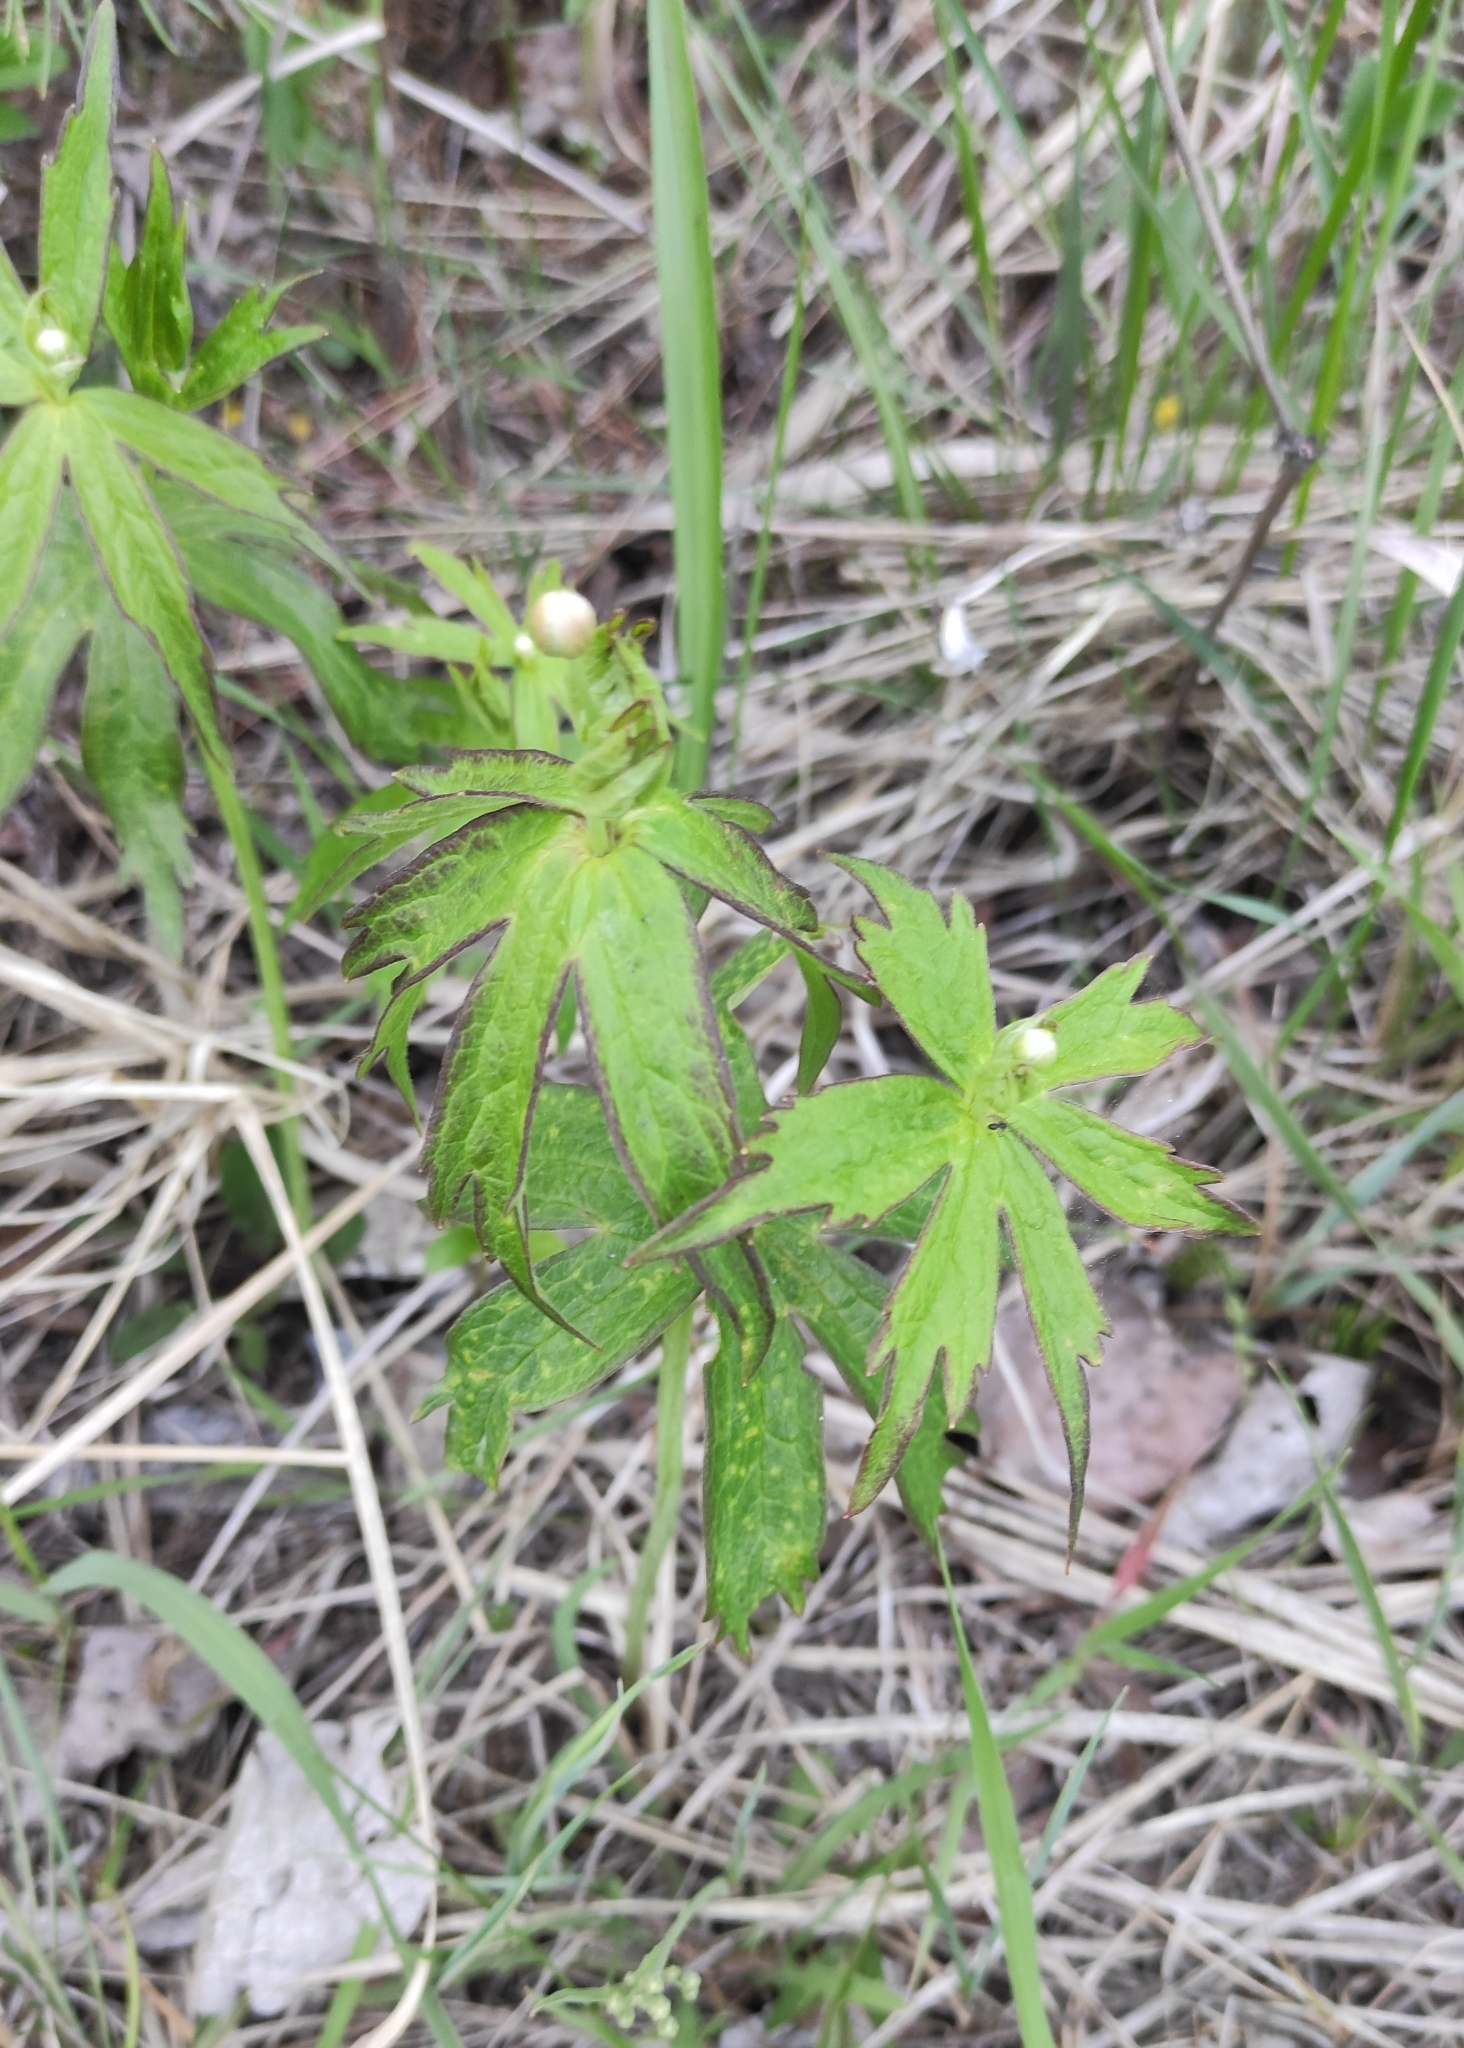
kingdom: Plantae
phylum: Tracheophyta
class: Magnoliopsida
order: Ranunculales
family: Ranunculaceae
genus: Anemonastrum
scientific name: Anemonastrum dichotomum
